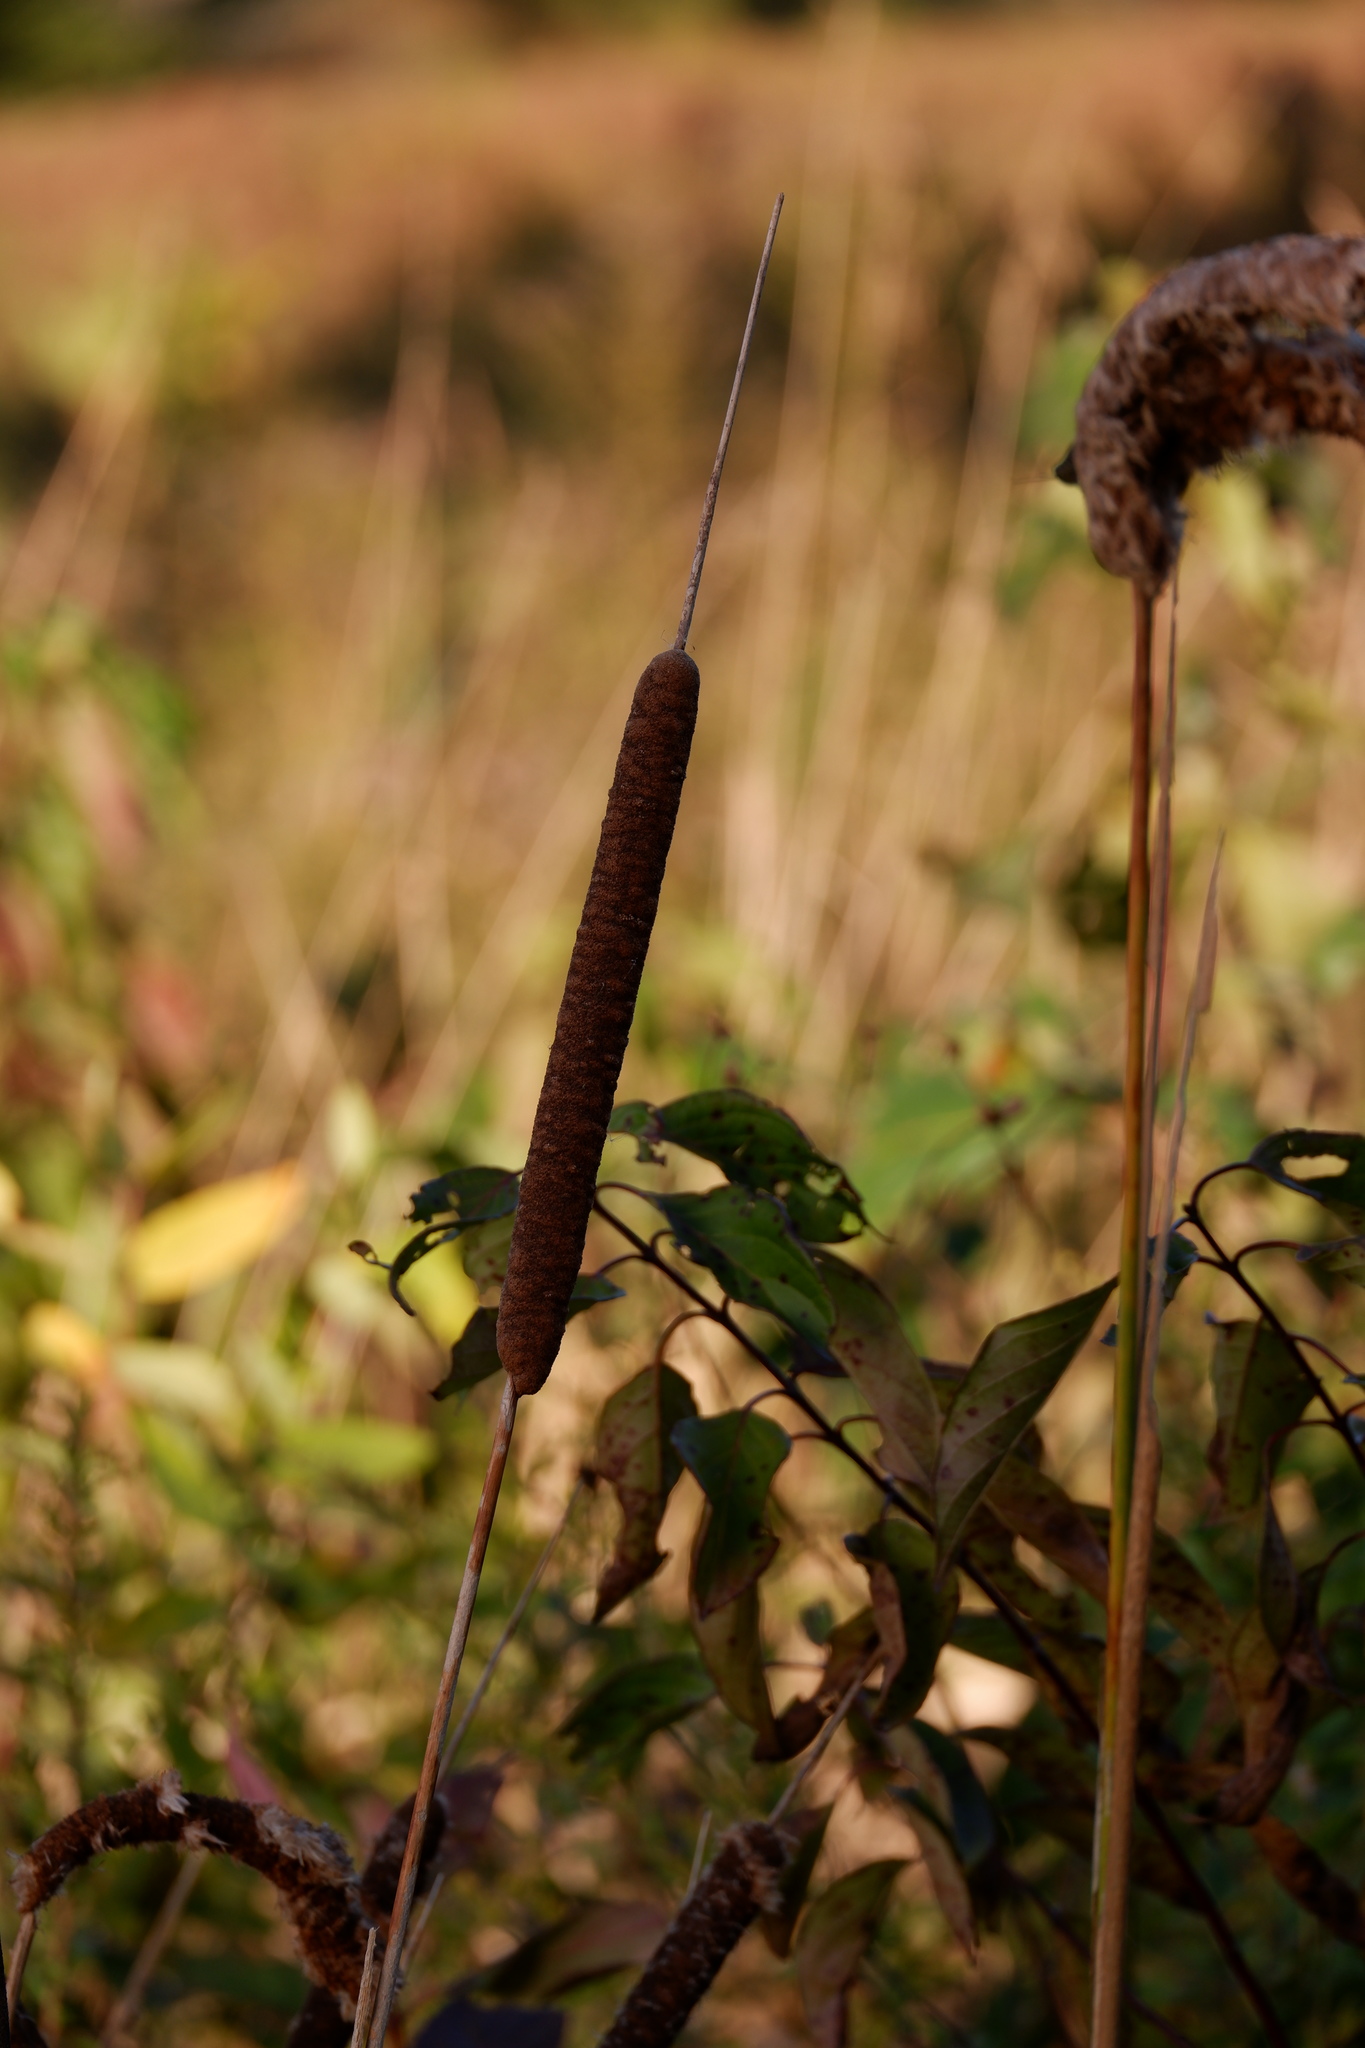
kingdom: Plantae
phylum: Tracheophyta
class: Liliopsida
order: Poales
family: Typhaceae
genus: Typha
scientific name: Typha angustifolia
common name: Lesser bulrush
